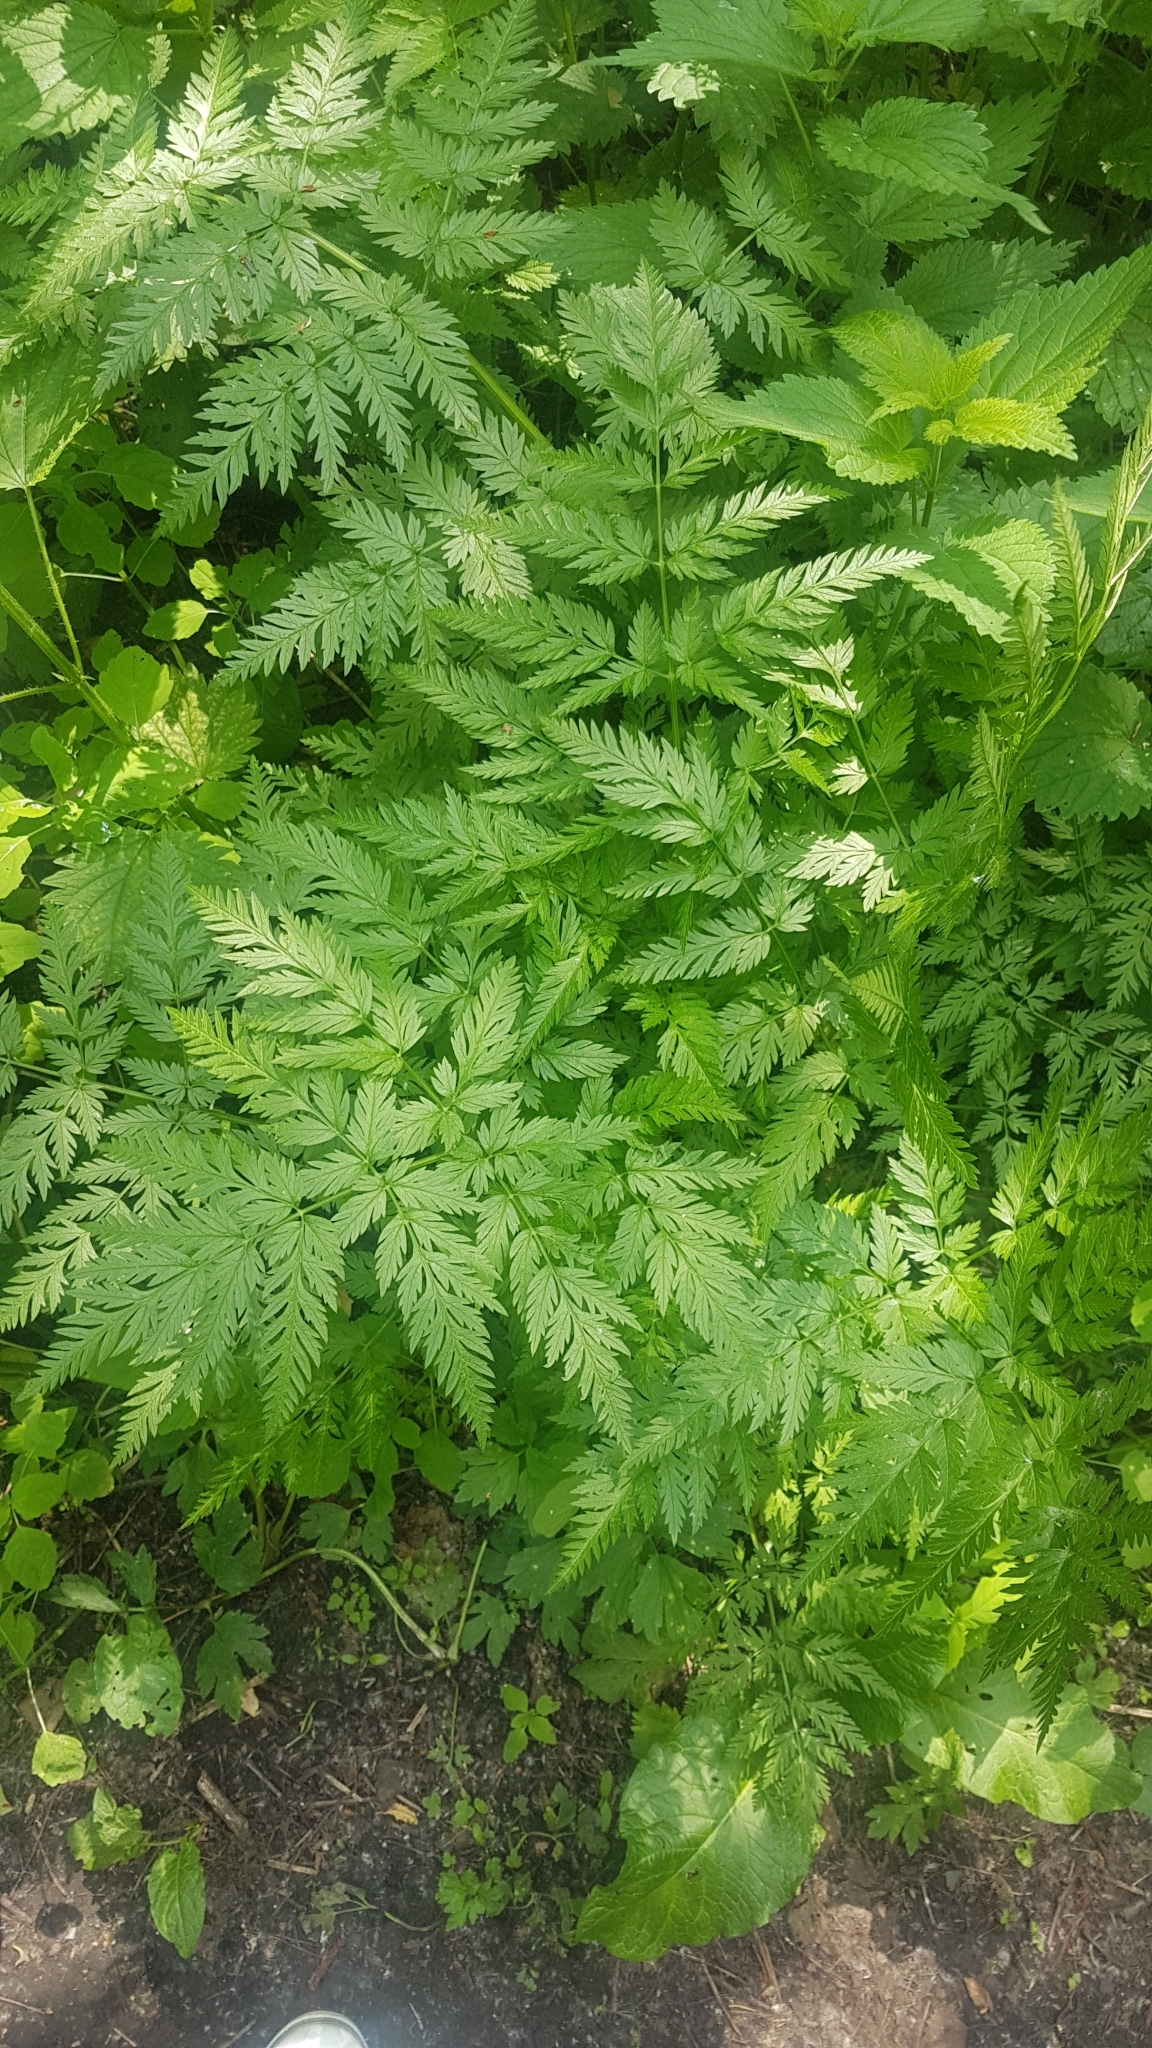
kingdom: Plantae
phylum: Tracheophyta
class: Magnoliopsida
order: Apiales
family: Apiaceae
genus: Anthriscus
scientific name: Anthriscus sylvestris
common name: Cow parsley
